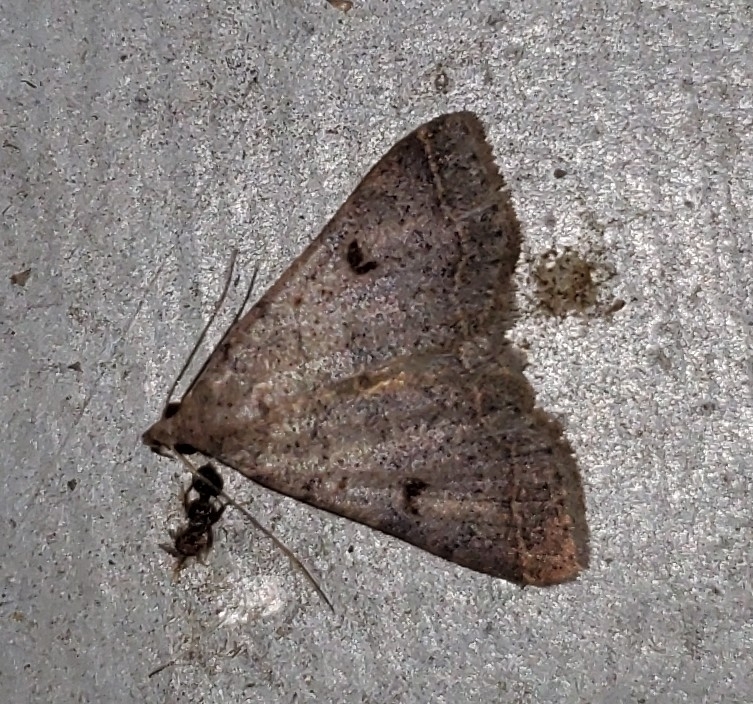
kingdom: Animalia
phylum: Arthropoda
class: Insecta
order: Lepidoptera
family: Erebidae
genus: Bleptina
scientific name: Bleptina caradrinalis
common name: Bent-winged owlet
